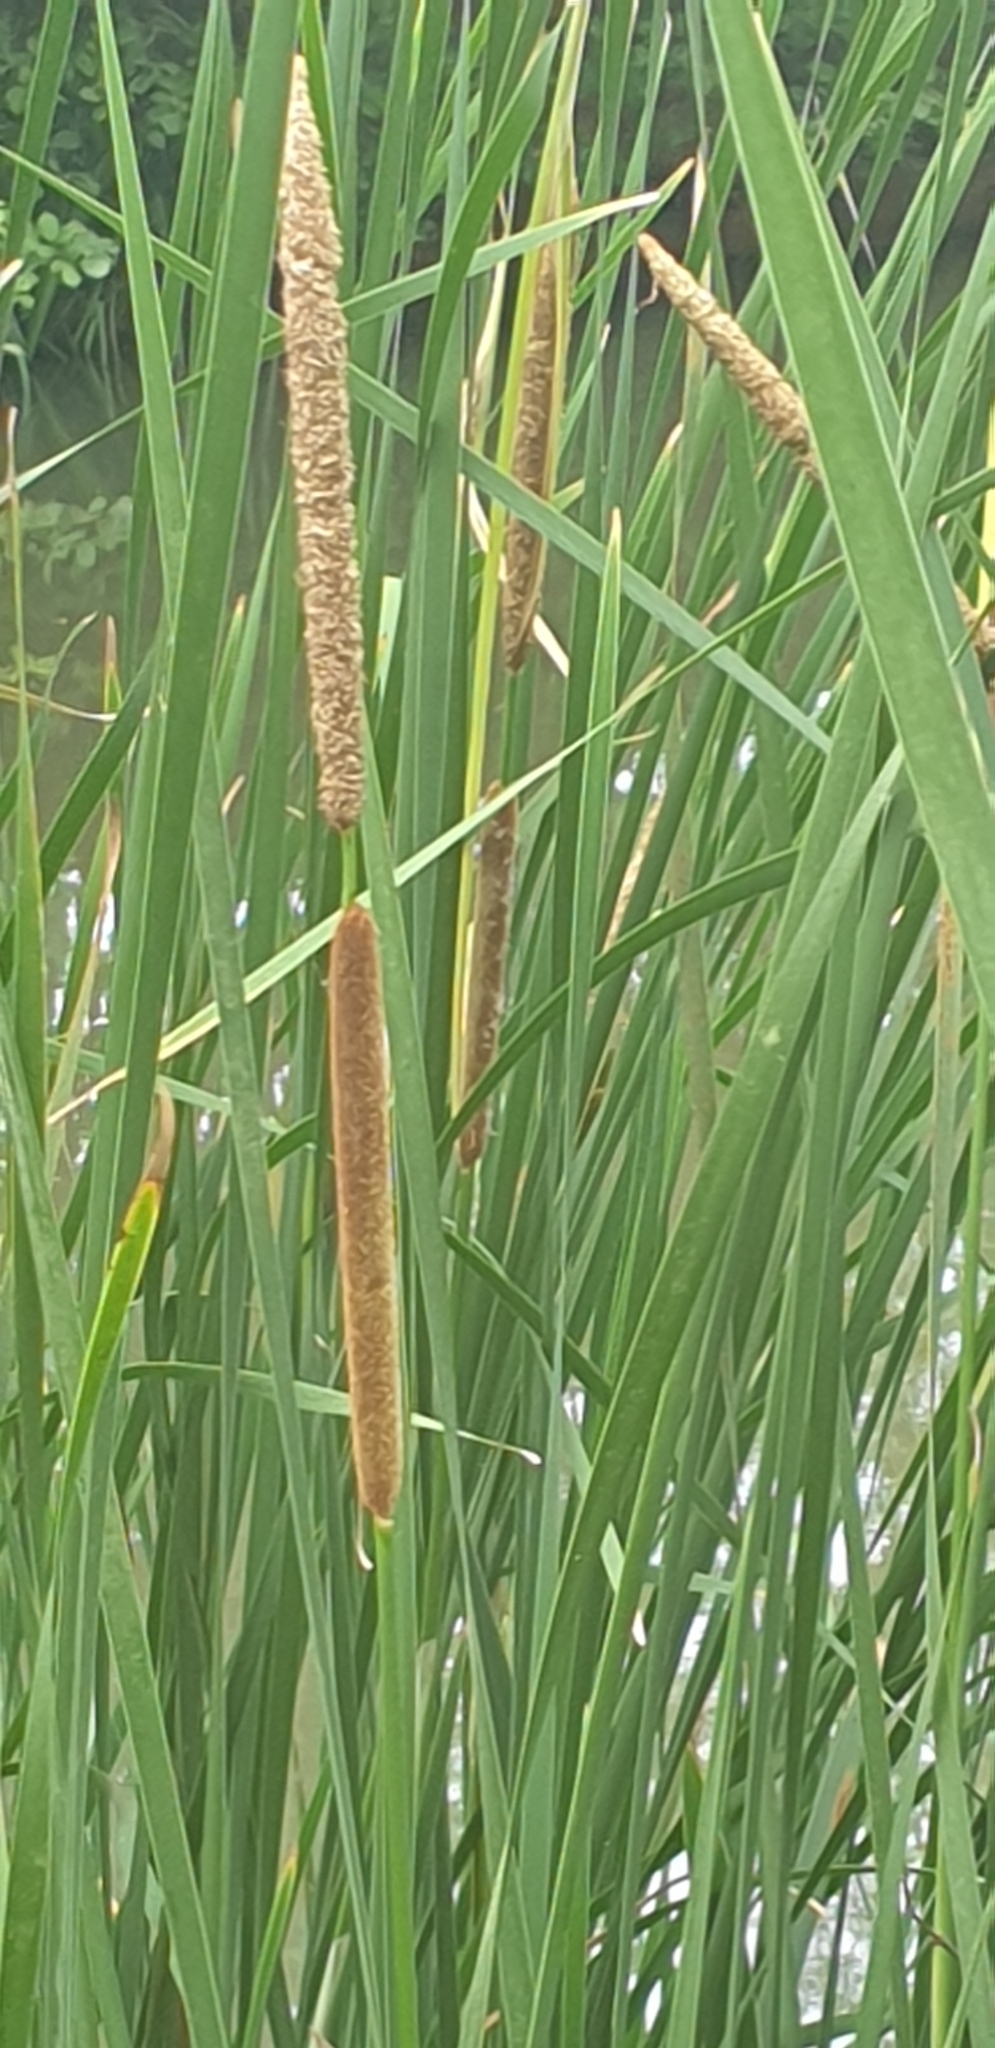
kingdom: Plantae
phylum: Tracheophyta
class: Liliopsida
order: Poales
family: Typhaceae
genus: Typha
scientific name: Typha angustifolia
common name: Lesser bulrush
